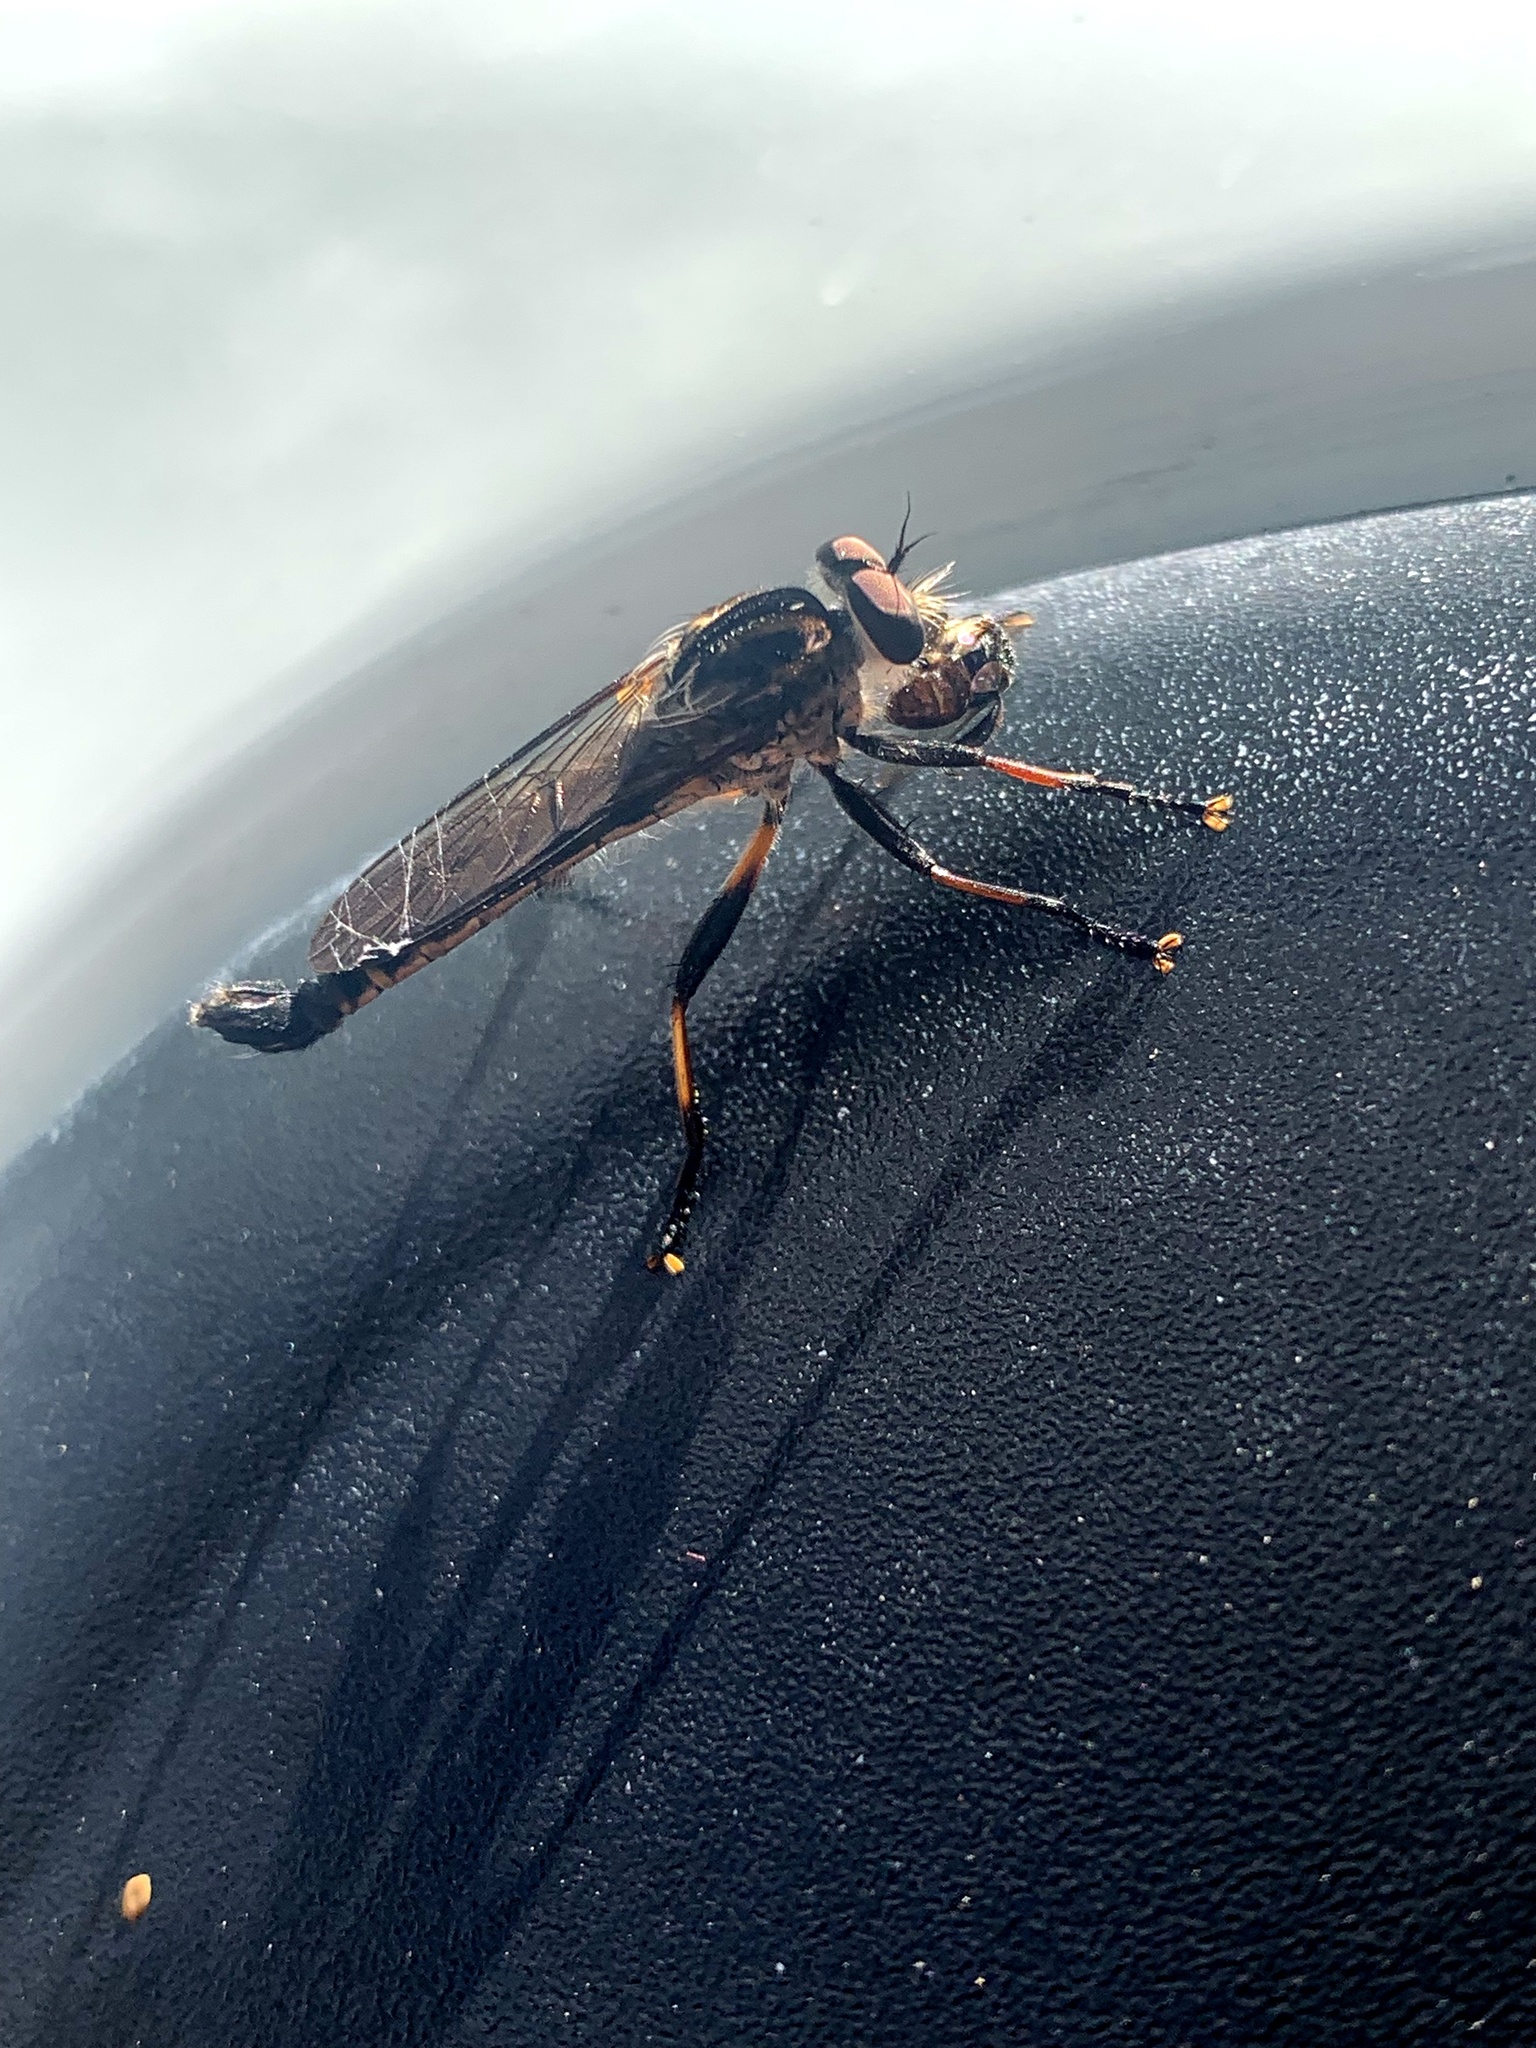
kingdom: Animalia
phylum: Arthropoda
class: Insecta
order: Diptera
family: Asilidae
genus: Cerdistus
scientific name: Cerdistus fuscipennis
